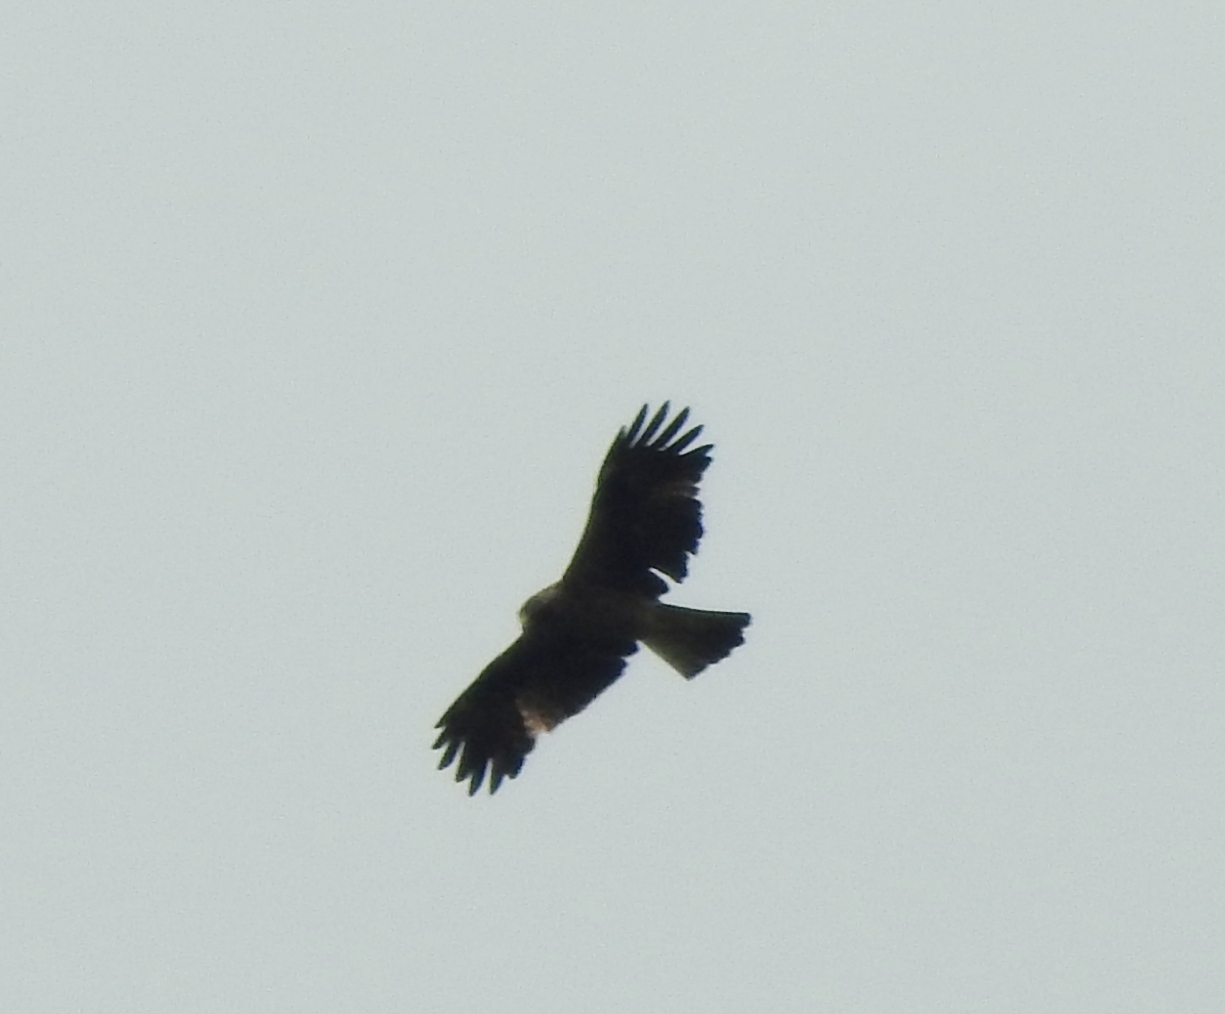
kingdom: Animalia
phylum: Chordata
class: Aves
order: Accipitriformes
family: Accipitridae
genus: Hieraaetus
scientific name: Hieraaetus pennatus
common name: Booted eagle
